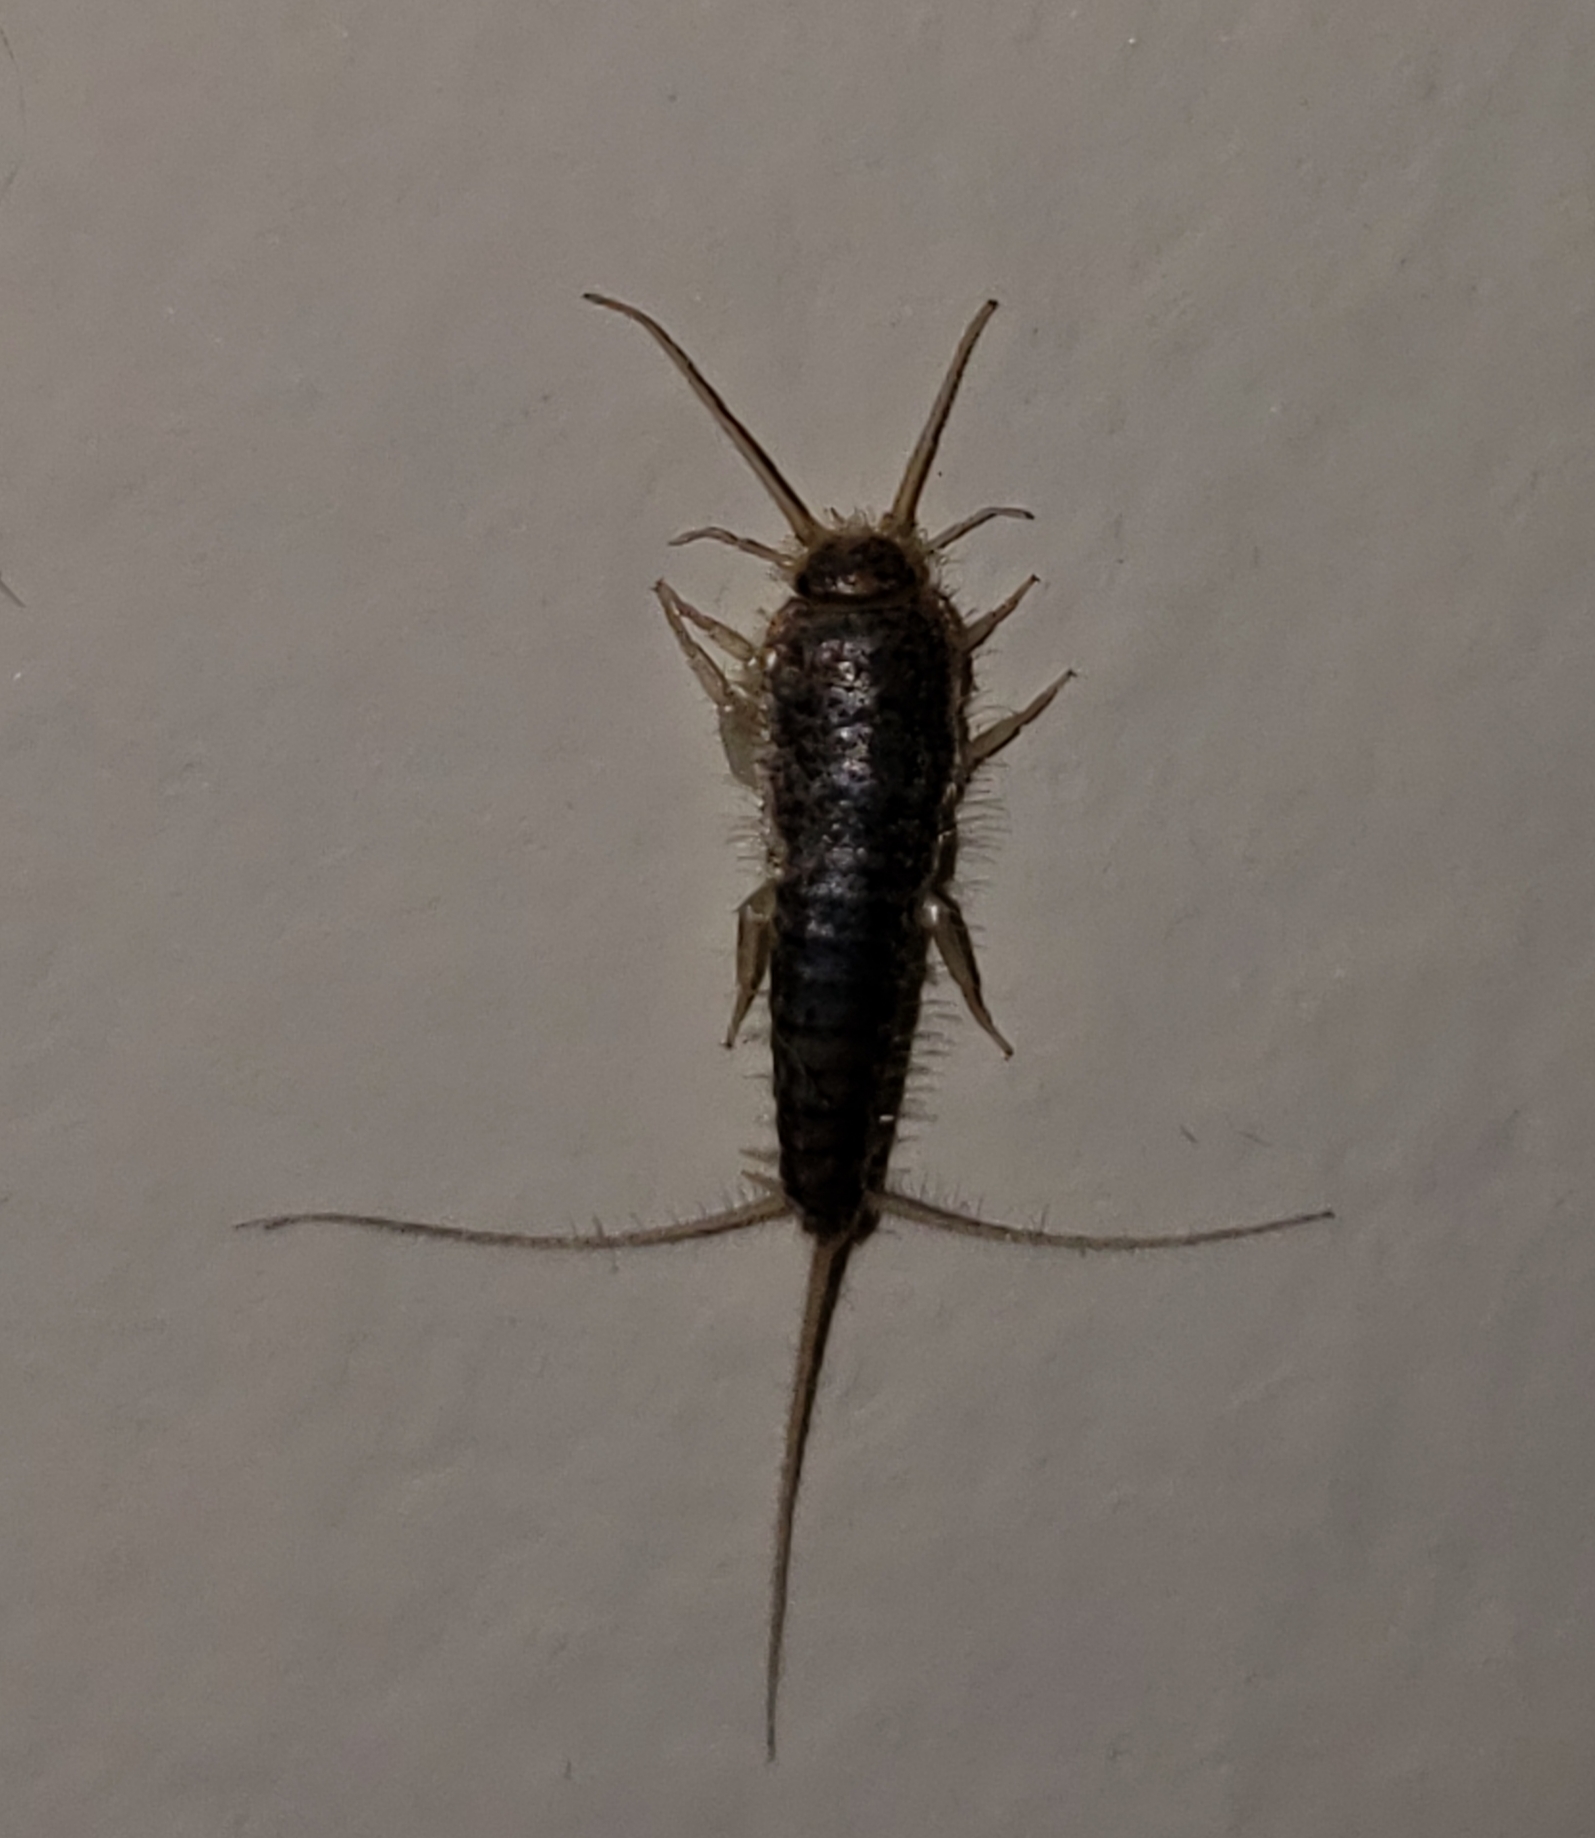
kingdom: Animalia
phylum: Arthropoda
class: Insecta
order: Zygentoma
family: Lepismatidae
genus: Ctenolepisma
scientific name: Ctenolepisma longicaudatum
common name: Silverfish
